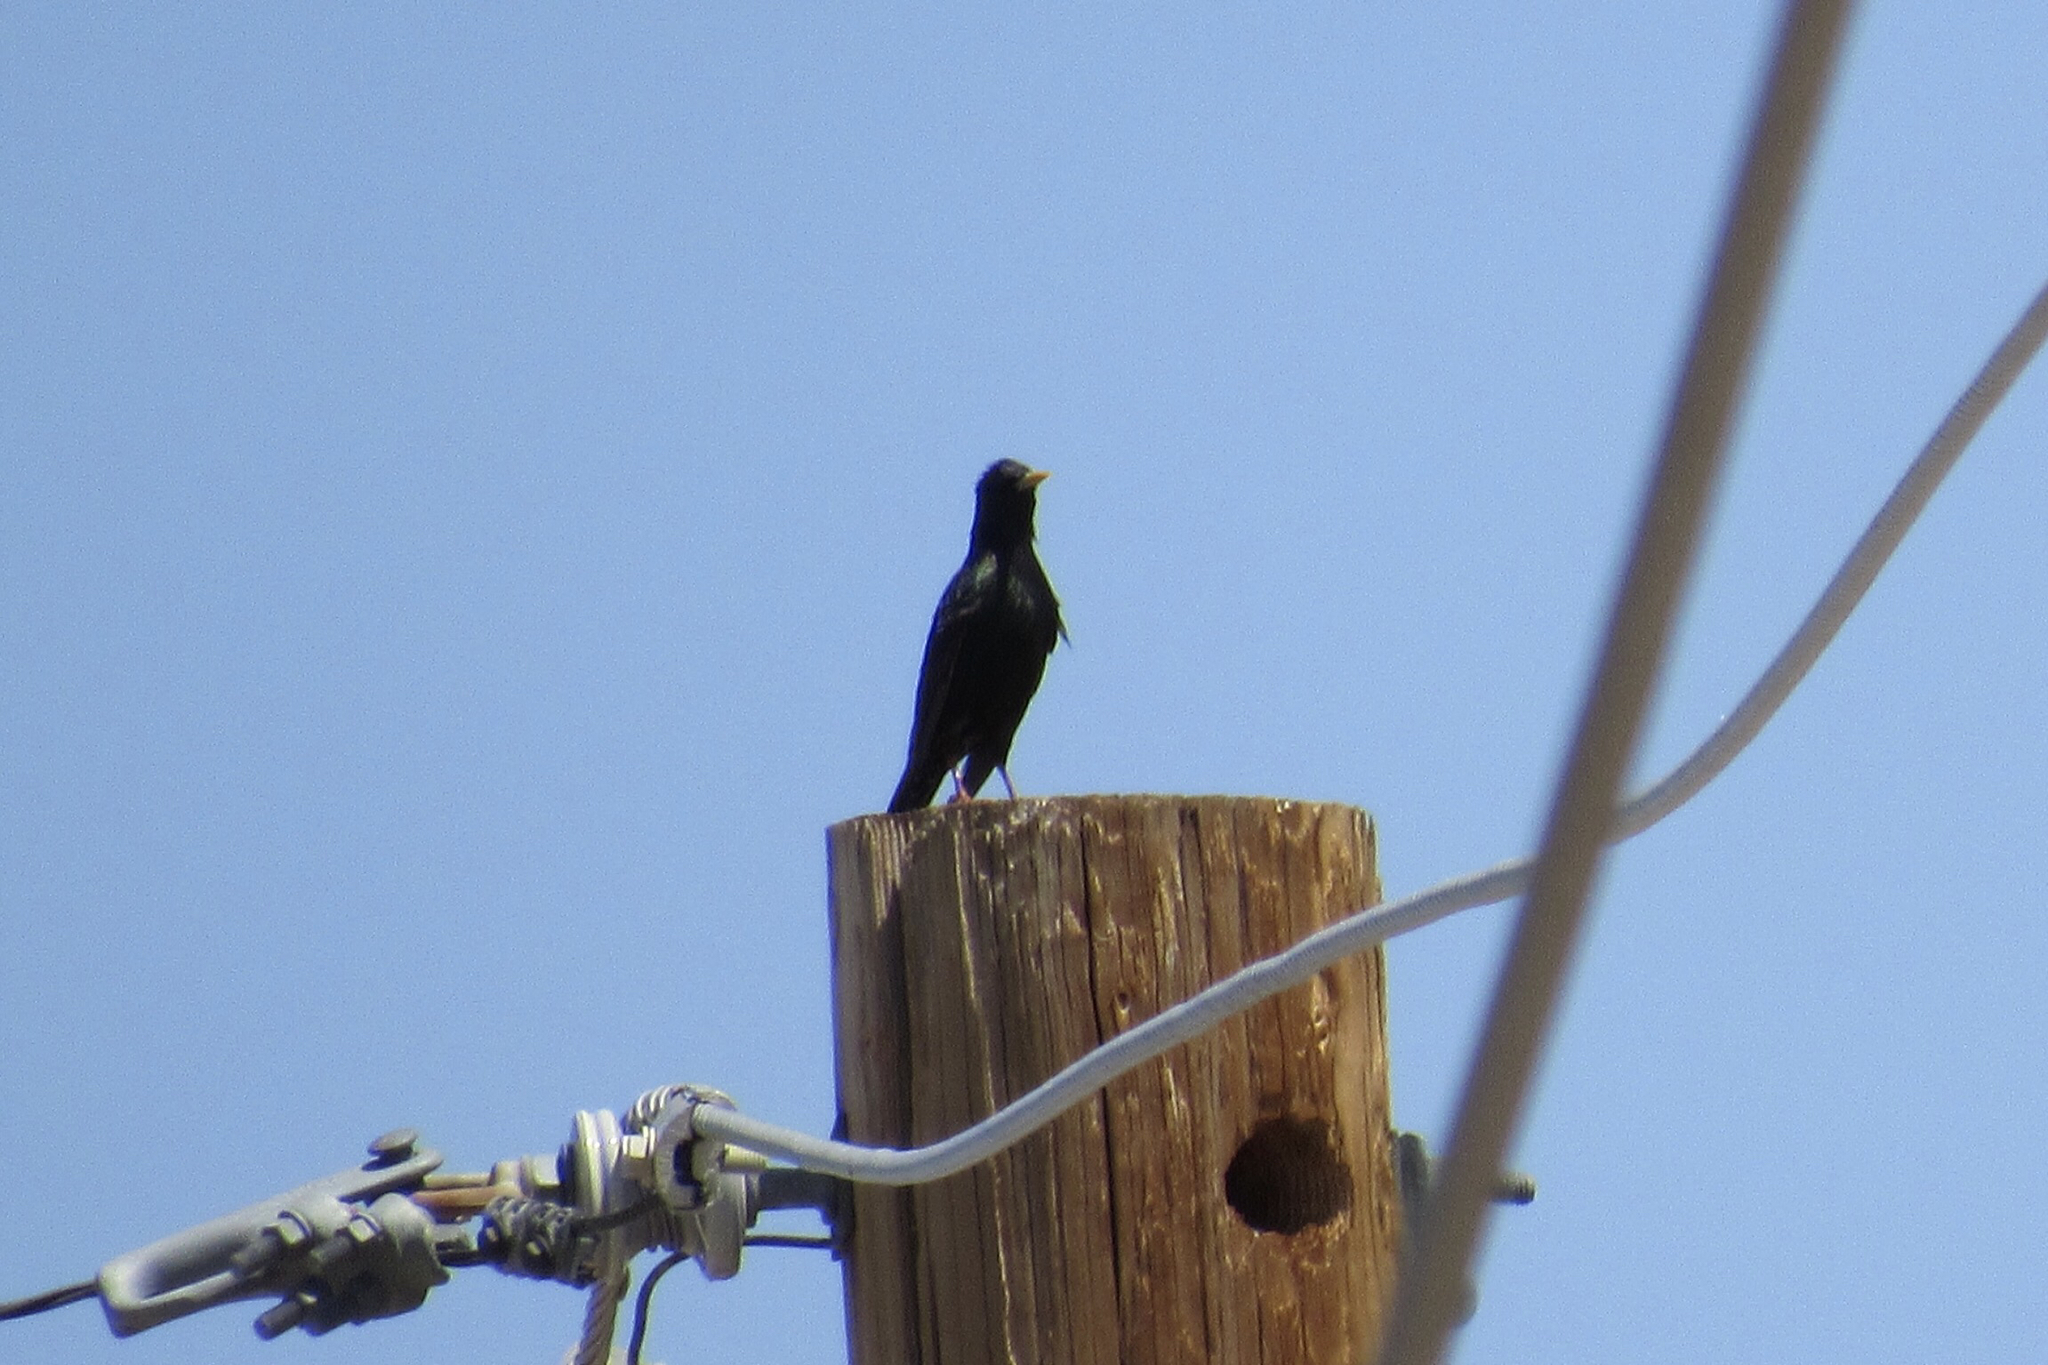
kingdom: Animalia
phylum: Chordata
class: Aves
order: Passeriformes
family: Sturnidae
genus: Sturnus
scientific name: Sturnus vulgaris
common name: Common starling
